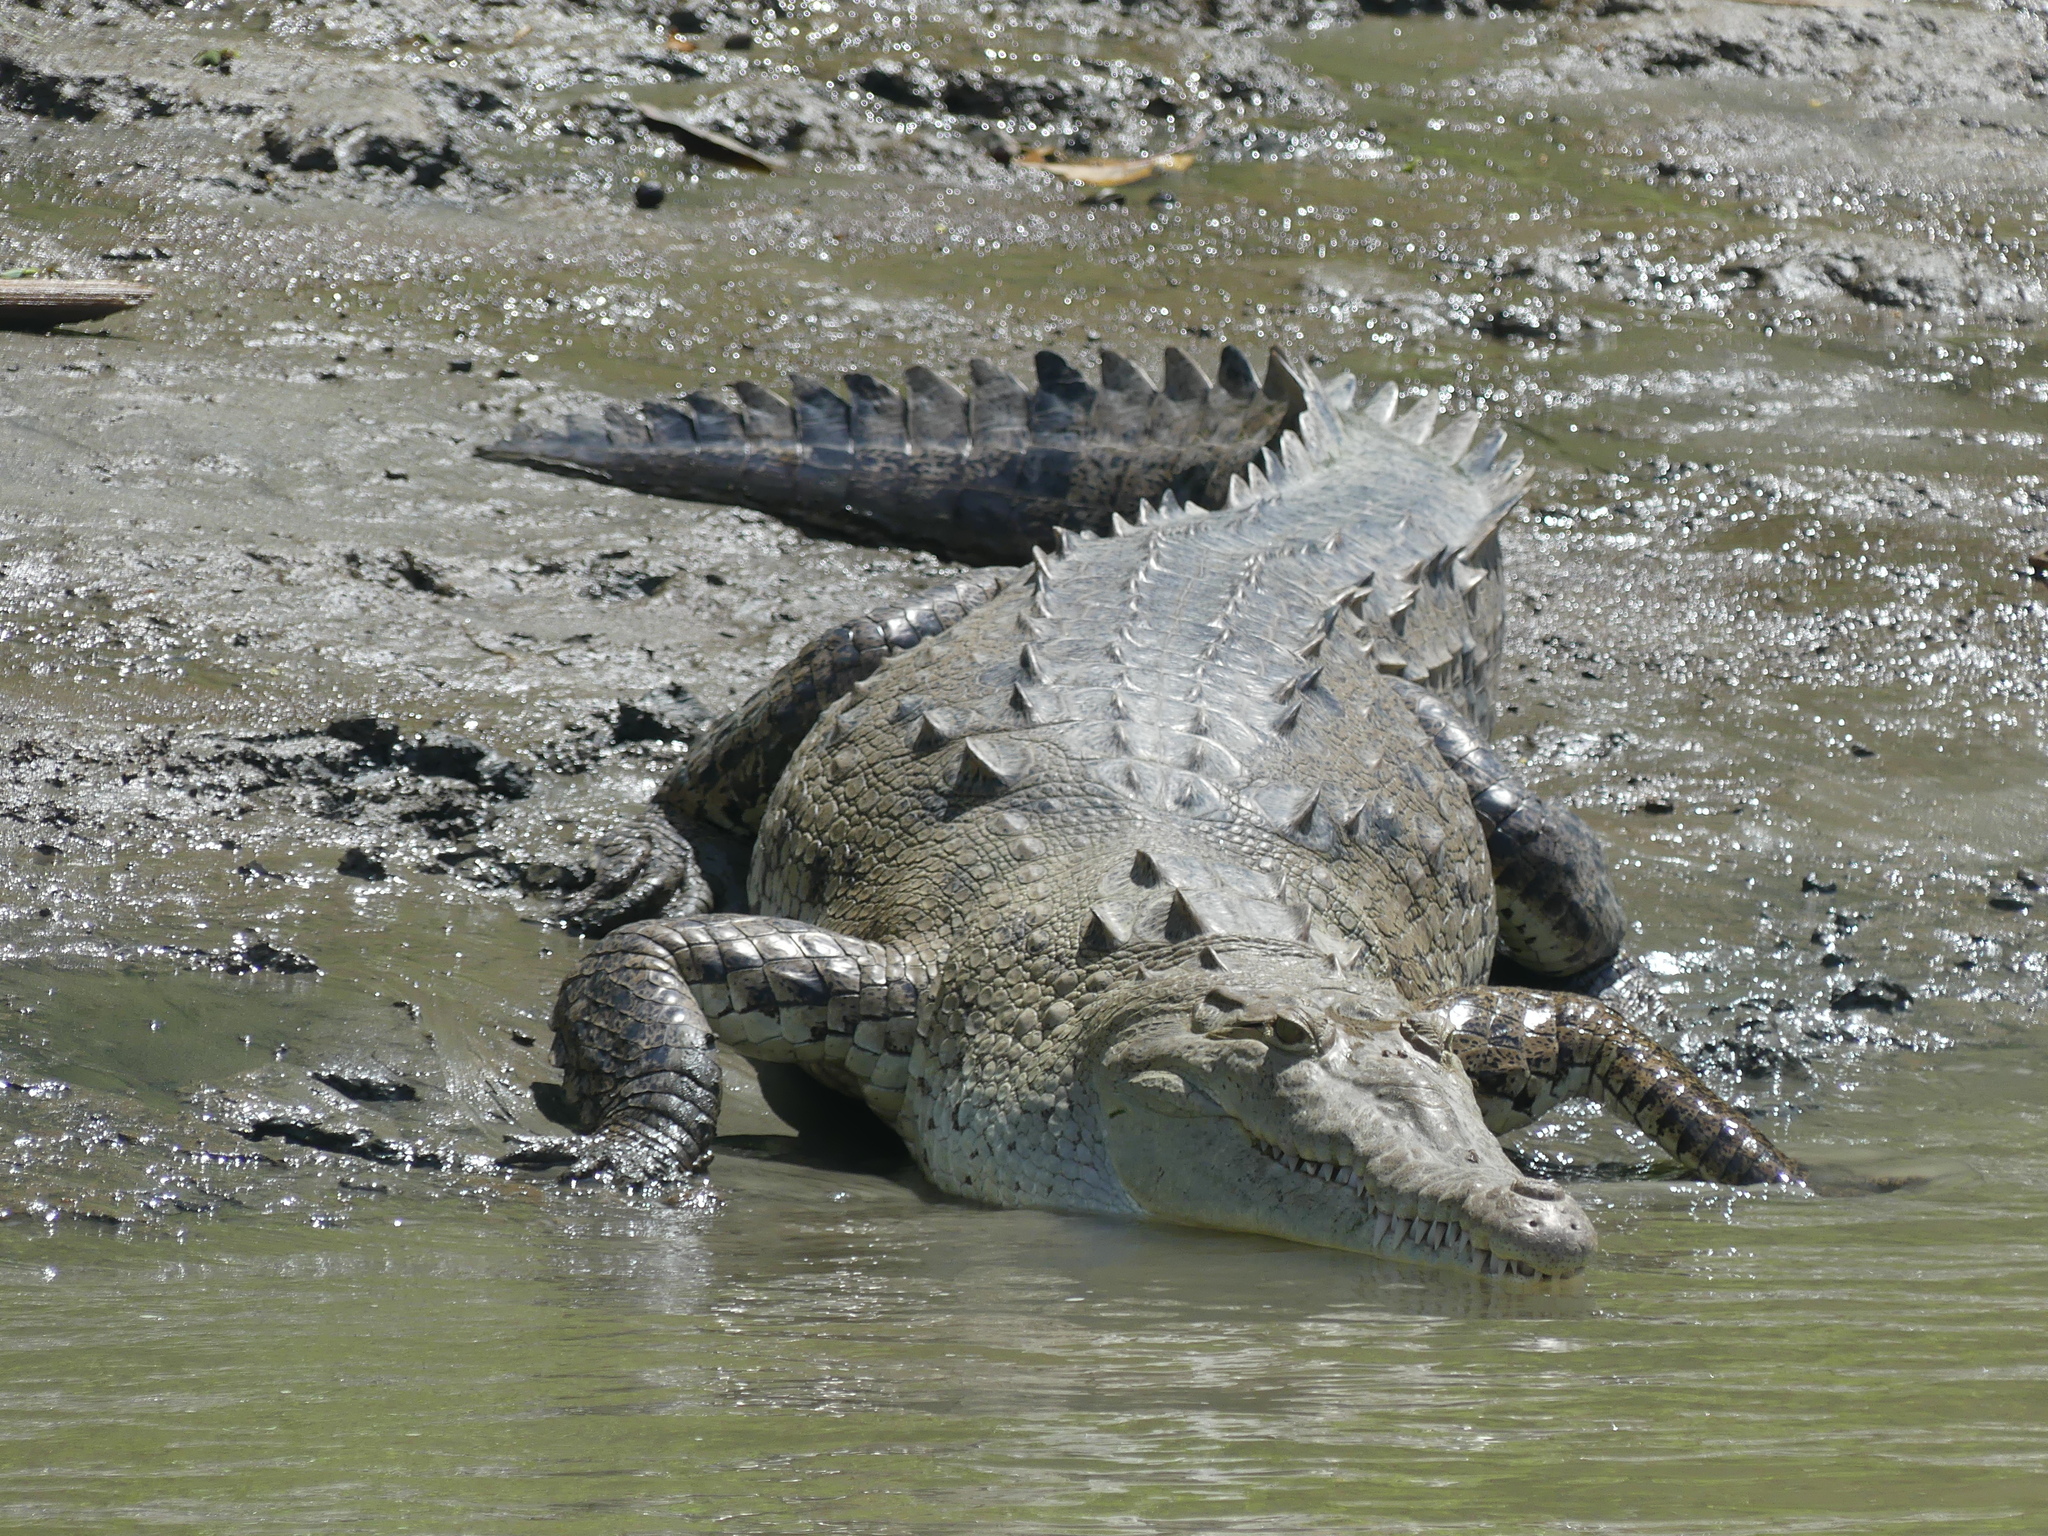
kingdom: Animalia
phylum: Chordata
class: Crocodylia
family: Crocodylidae
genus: Crocodylus
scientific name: Crocodylus acutus
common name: American crocodile
